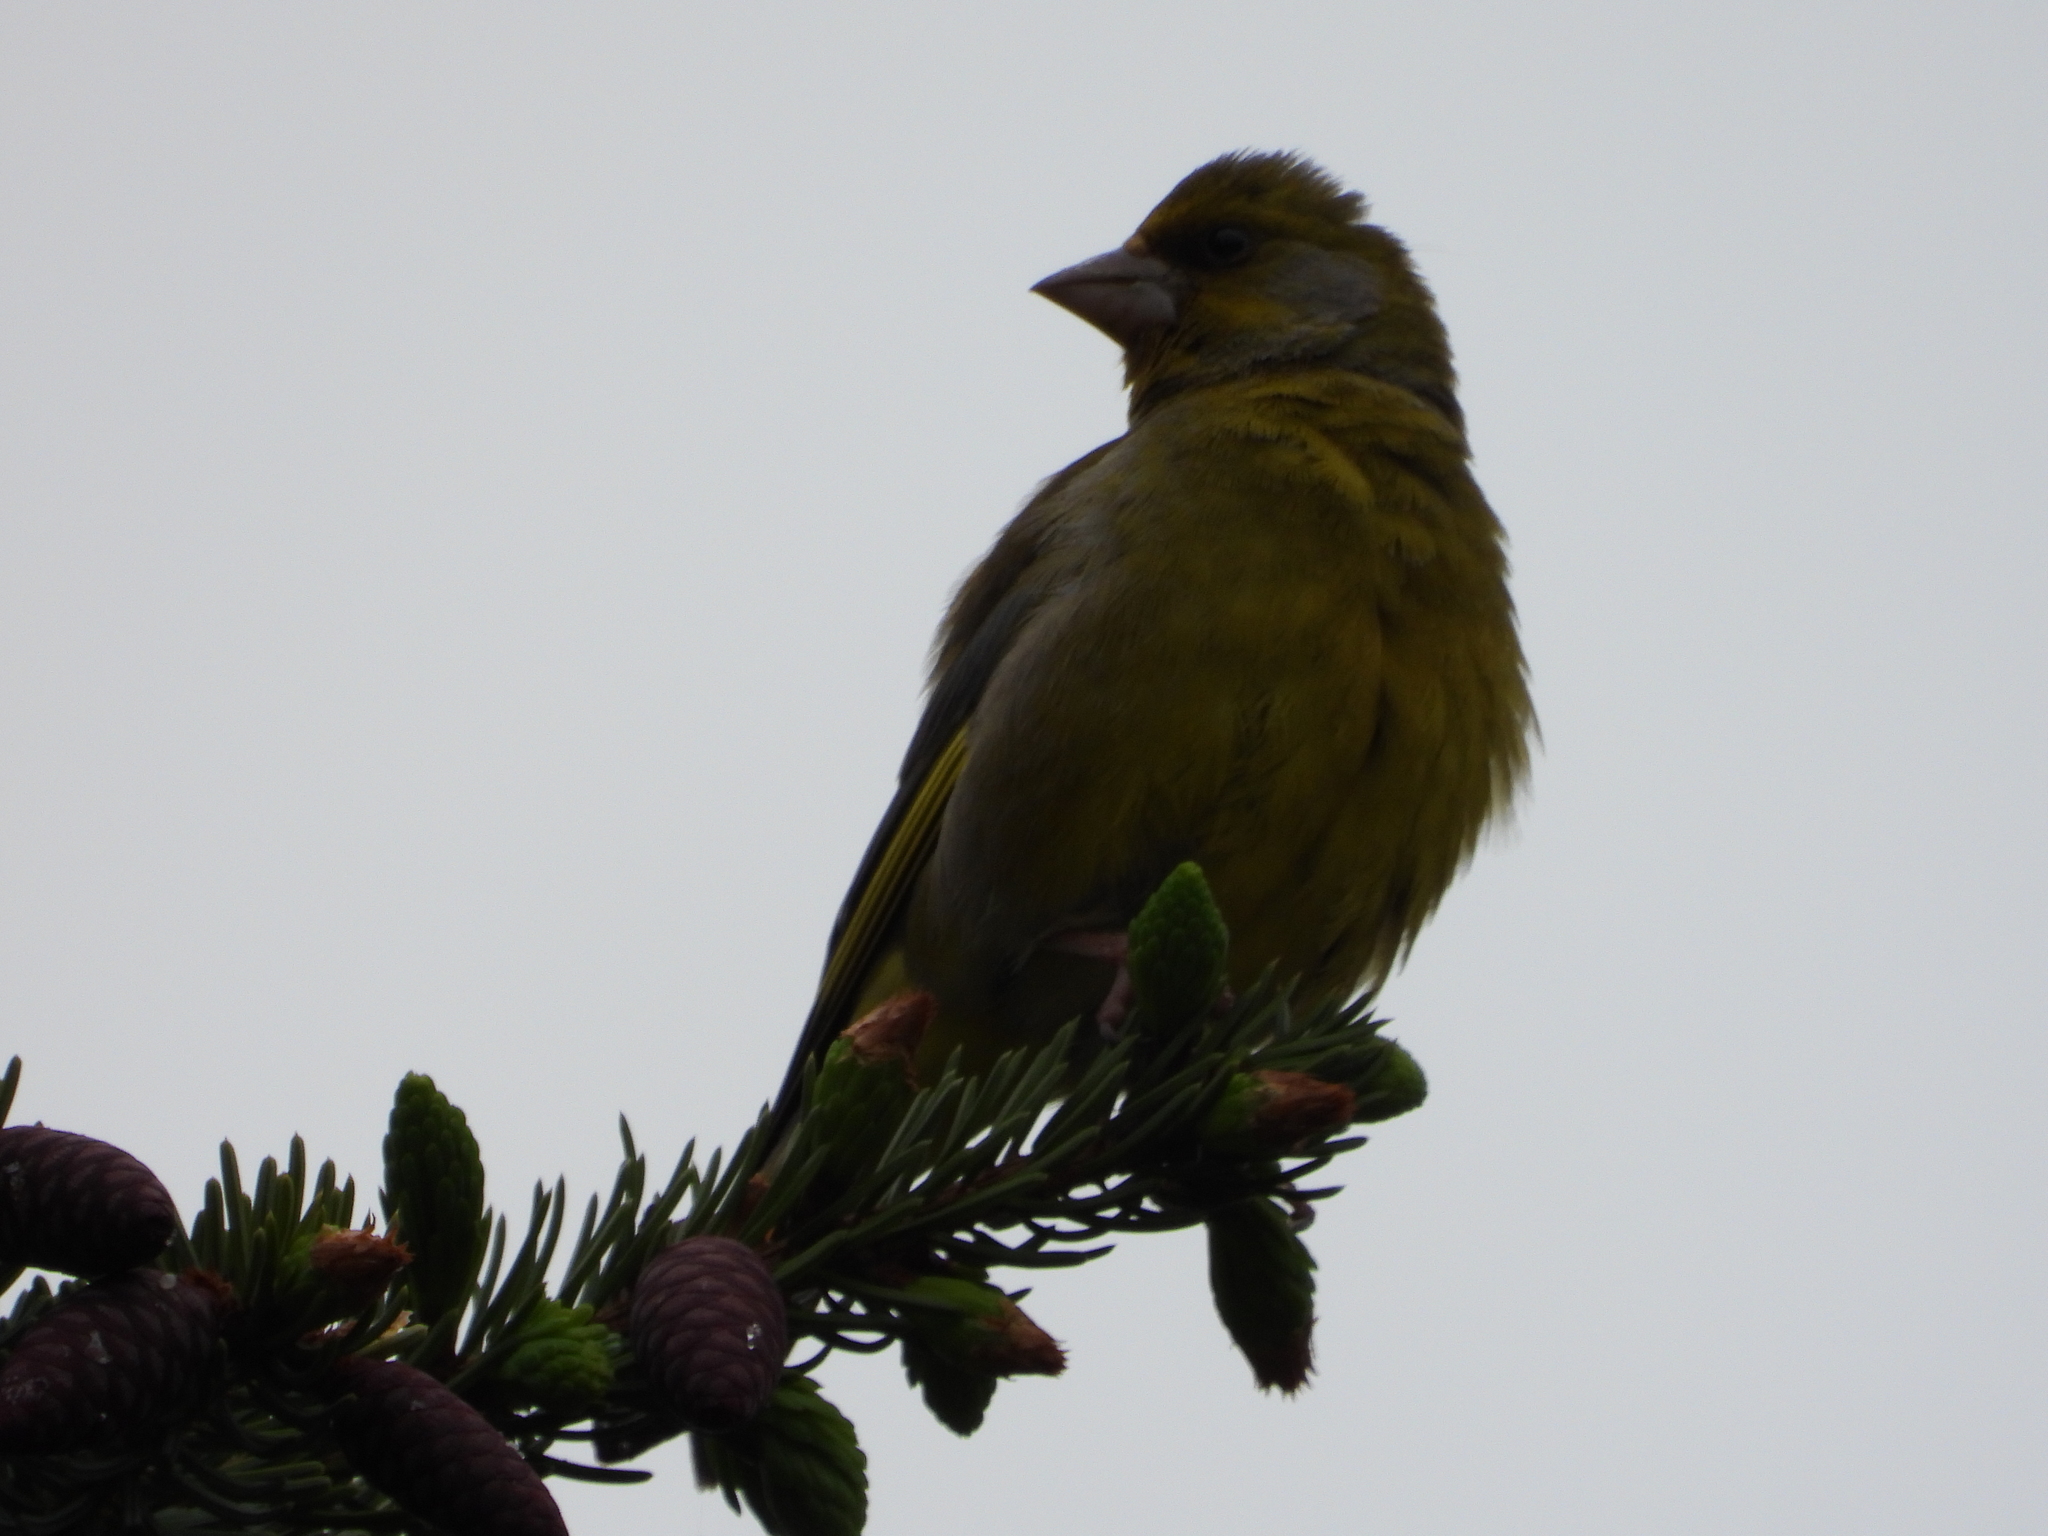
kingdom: Plantae
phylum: Tracheophyta
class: Liliopsida
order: Poales
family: Poaceae
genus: Chloris
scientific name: Chloris chloris
